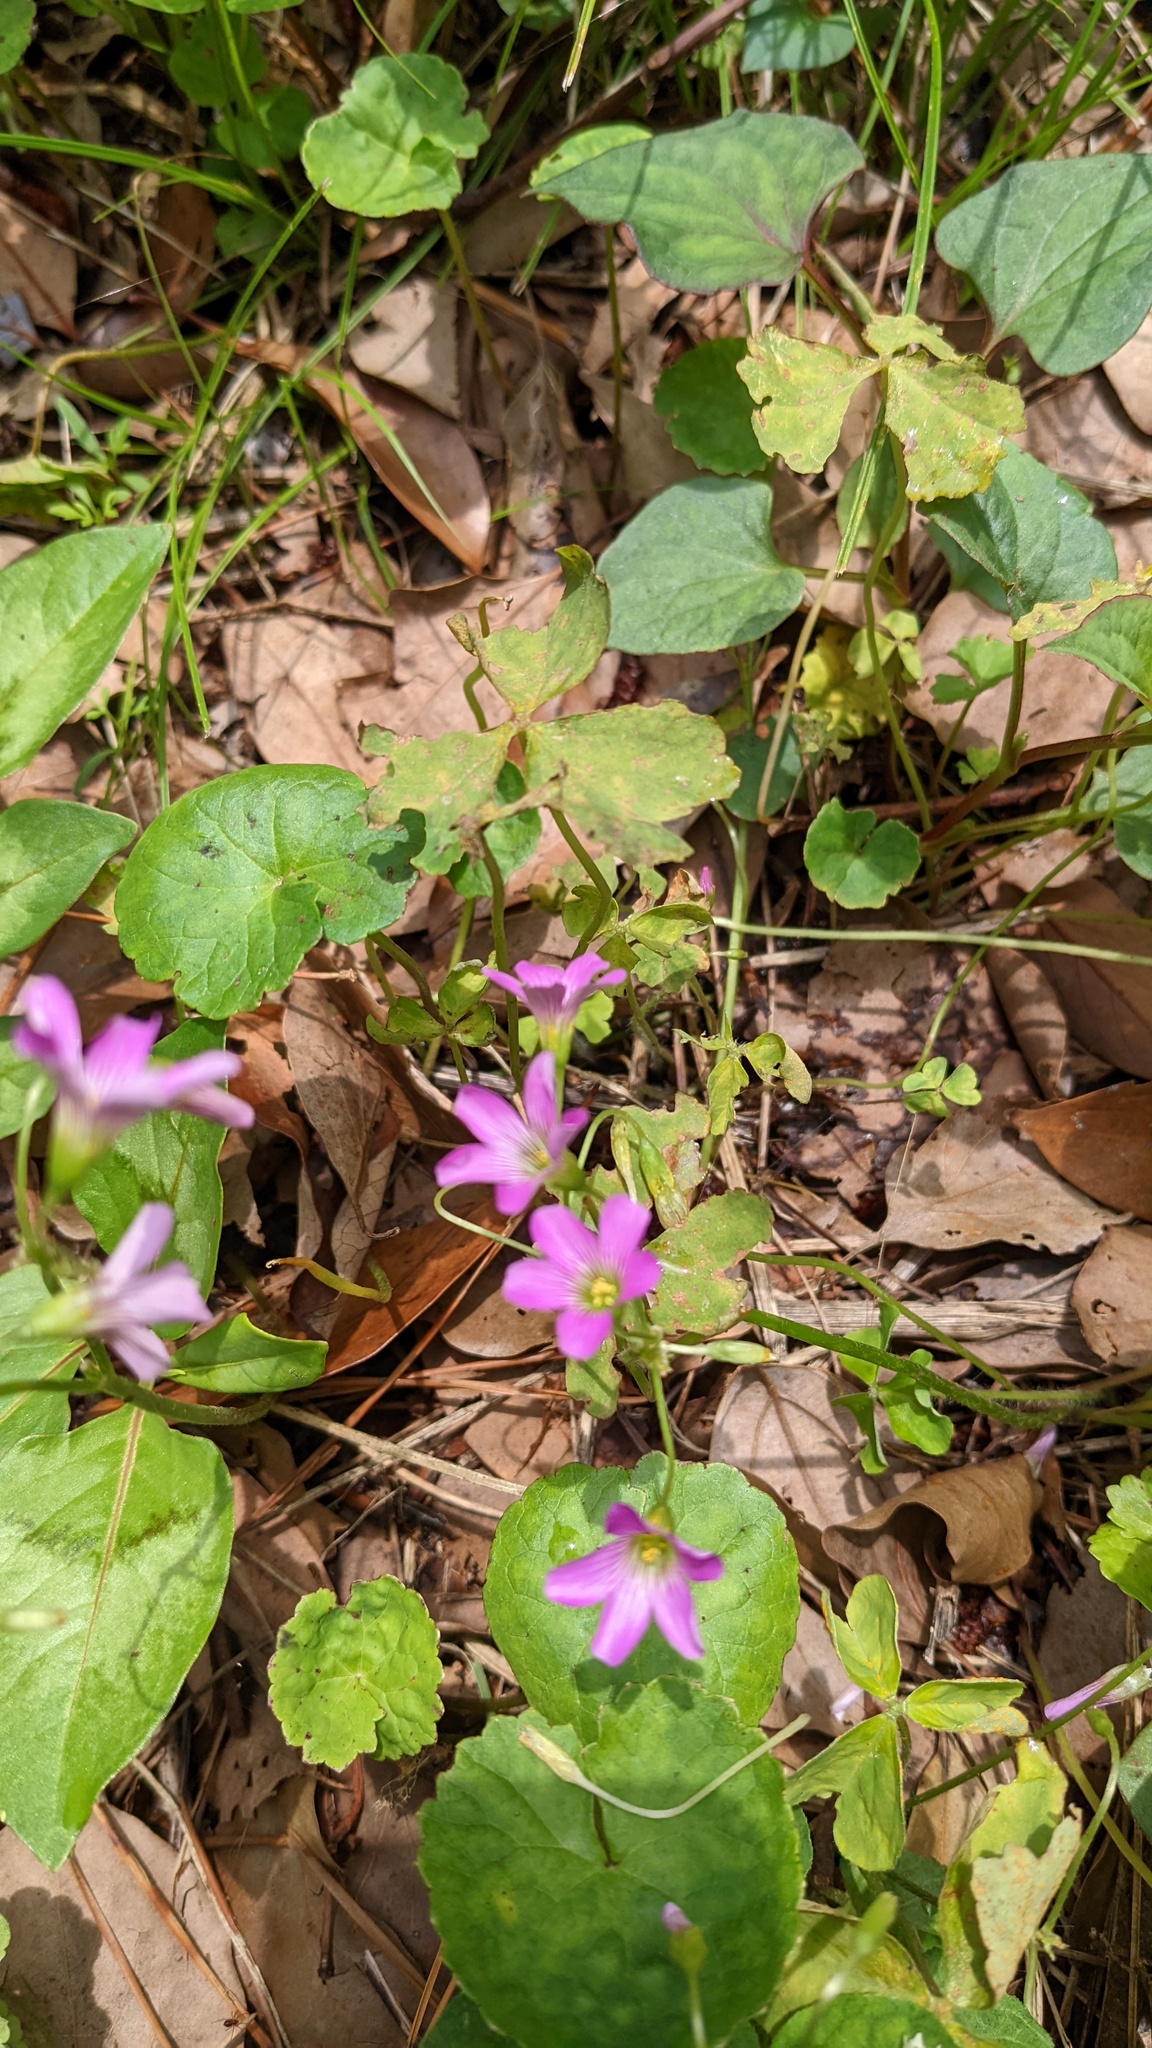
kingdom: Fungi
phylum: Basidiomycota
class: Pucciniomycetes
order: Pucciniales
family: Pucciniaceae
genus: Puccinia
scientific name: Puccinia oxalidis
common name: Oxalis rust
